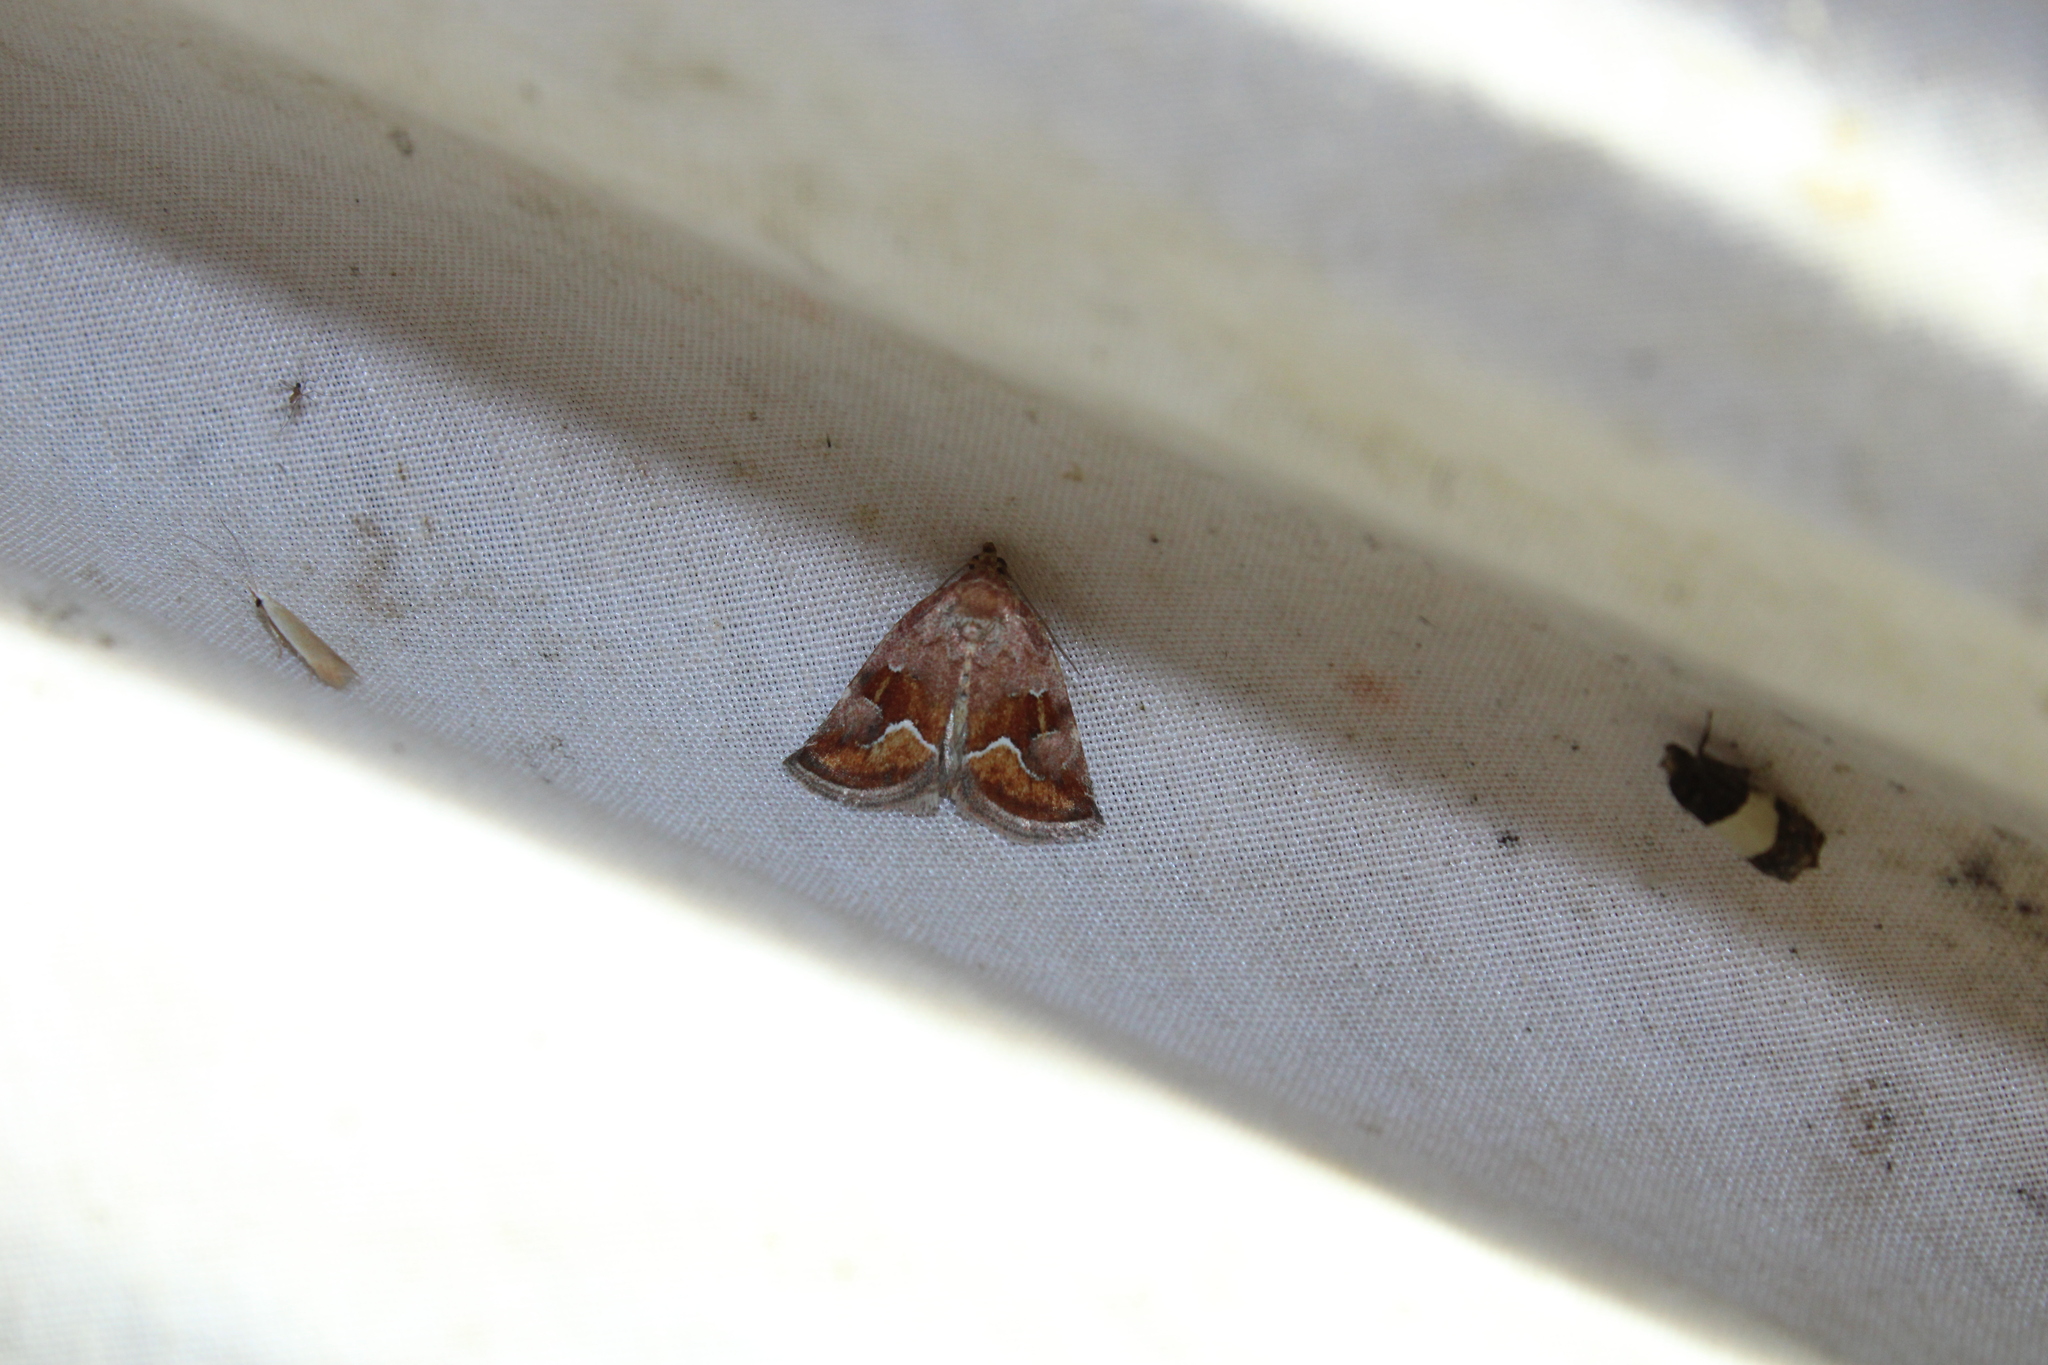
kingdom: Animalia
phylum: Arthropoda
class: Insecta
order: Lepidoptera
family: Noctuidae
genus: Deltote
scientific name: Deltote bellicula
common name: Bog glyph
